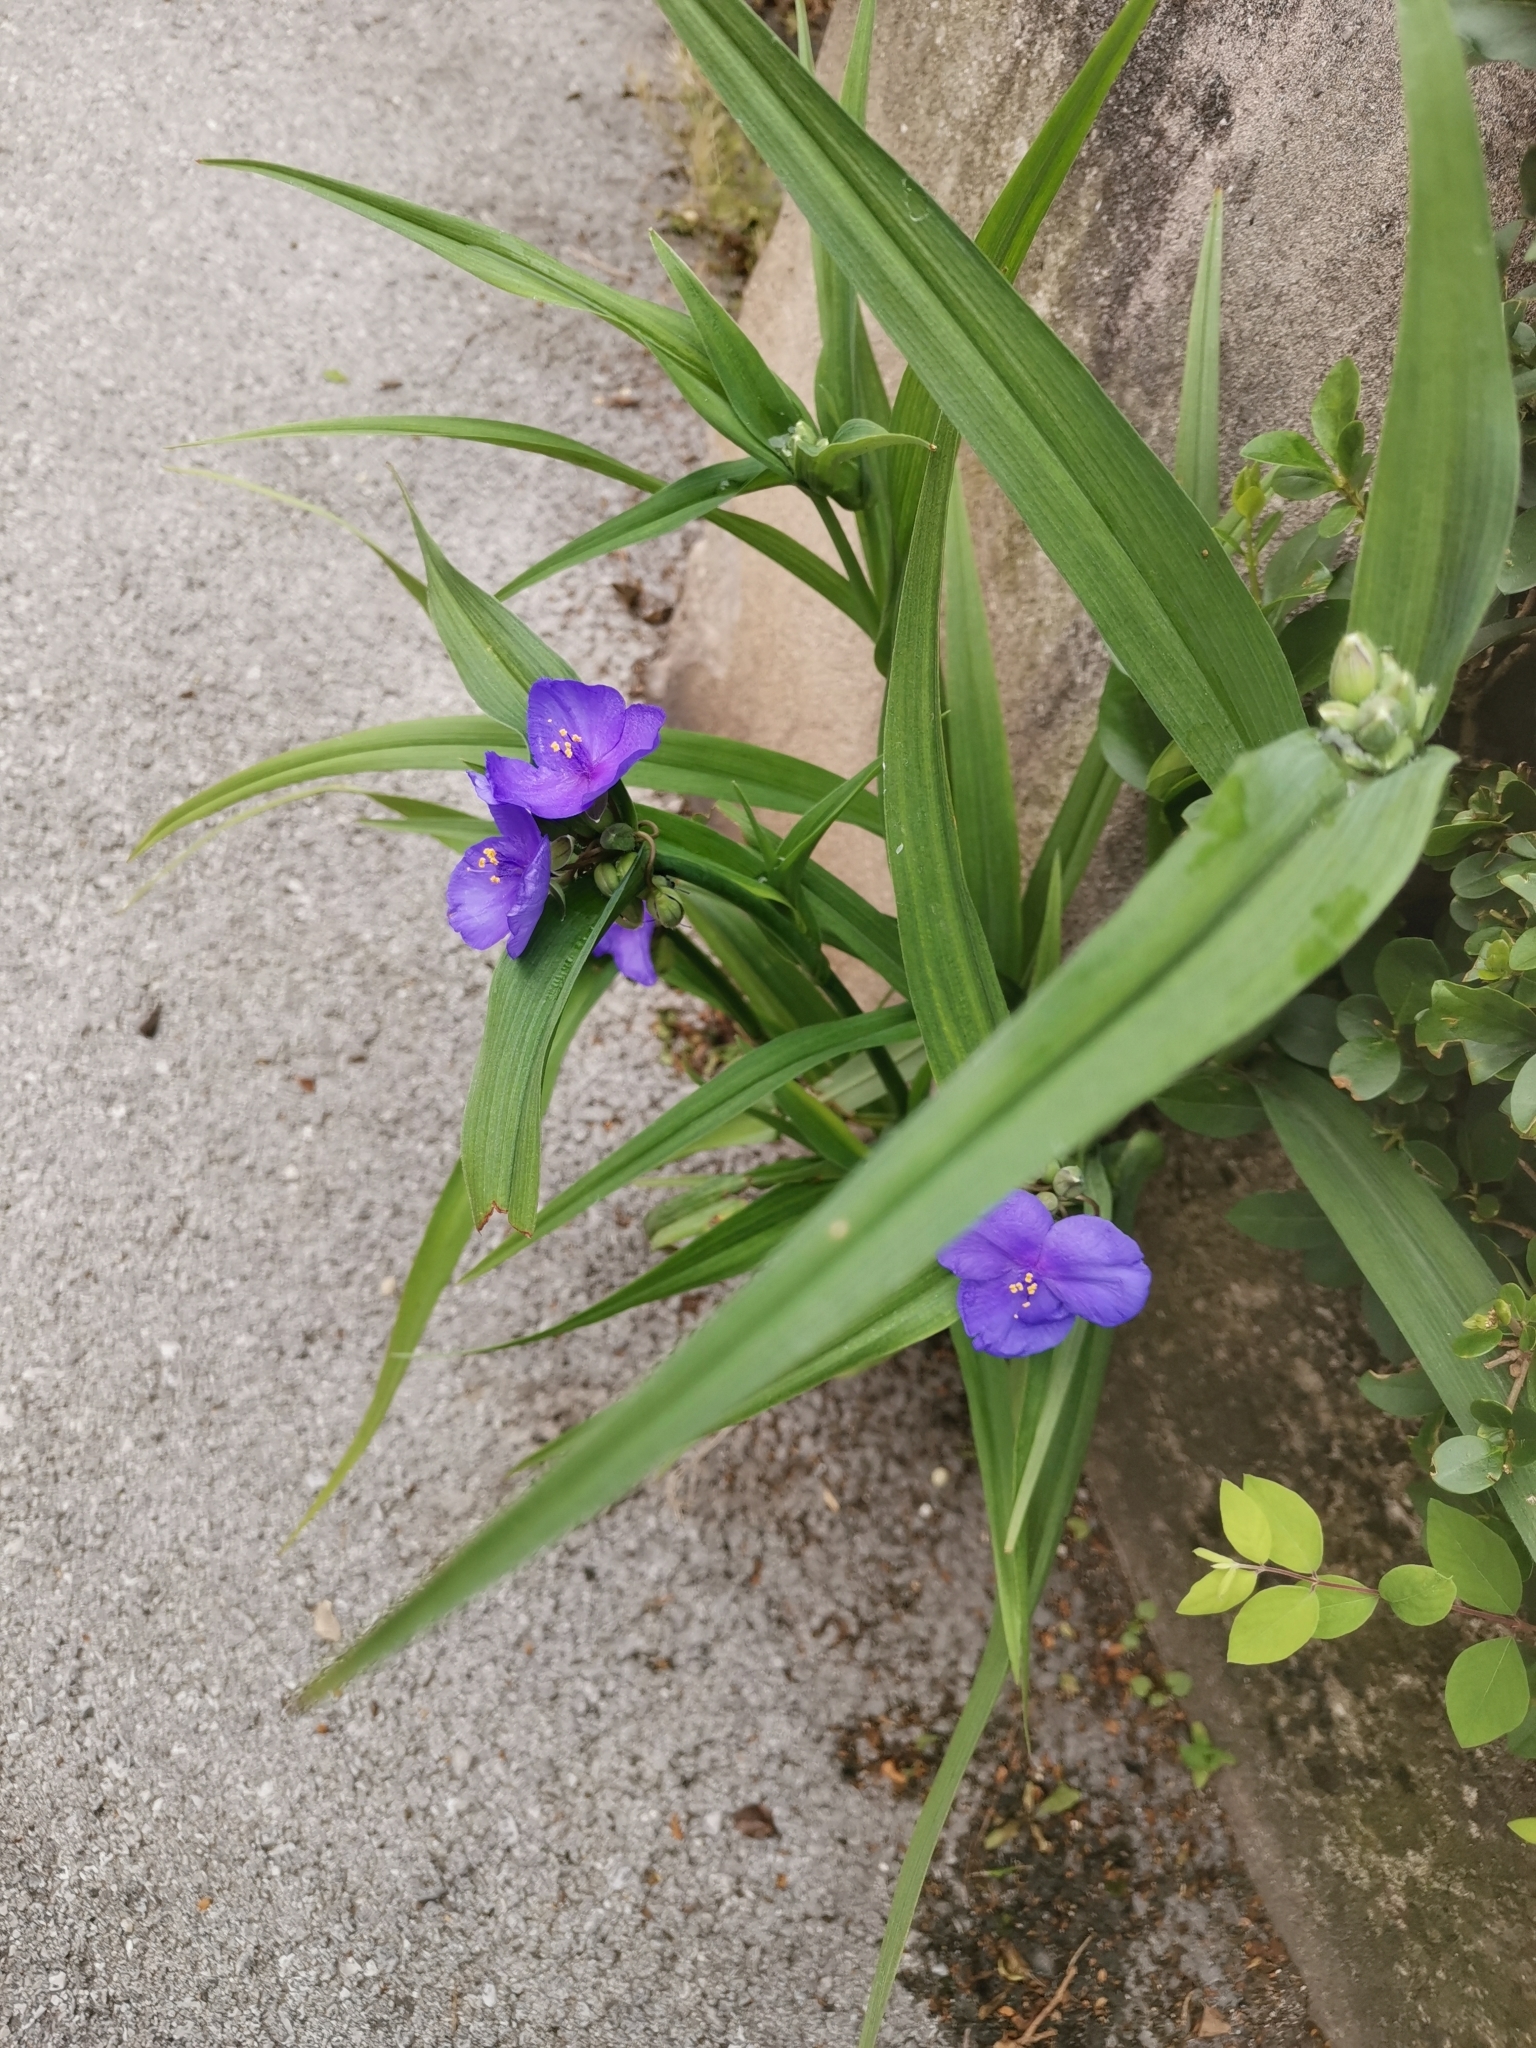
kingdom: Plantae
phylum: Tracheophyta
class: Liliopsida
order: Commelinales
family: Commelinaceae
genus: Tradescantia
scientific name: Tradescantia virginiana
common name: Spiderwort
